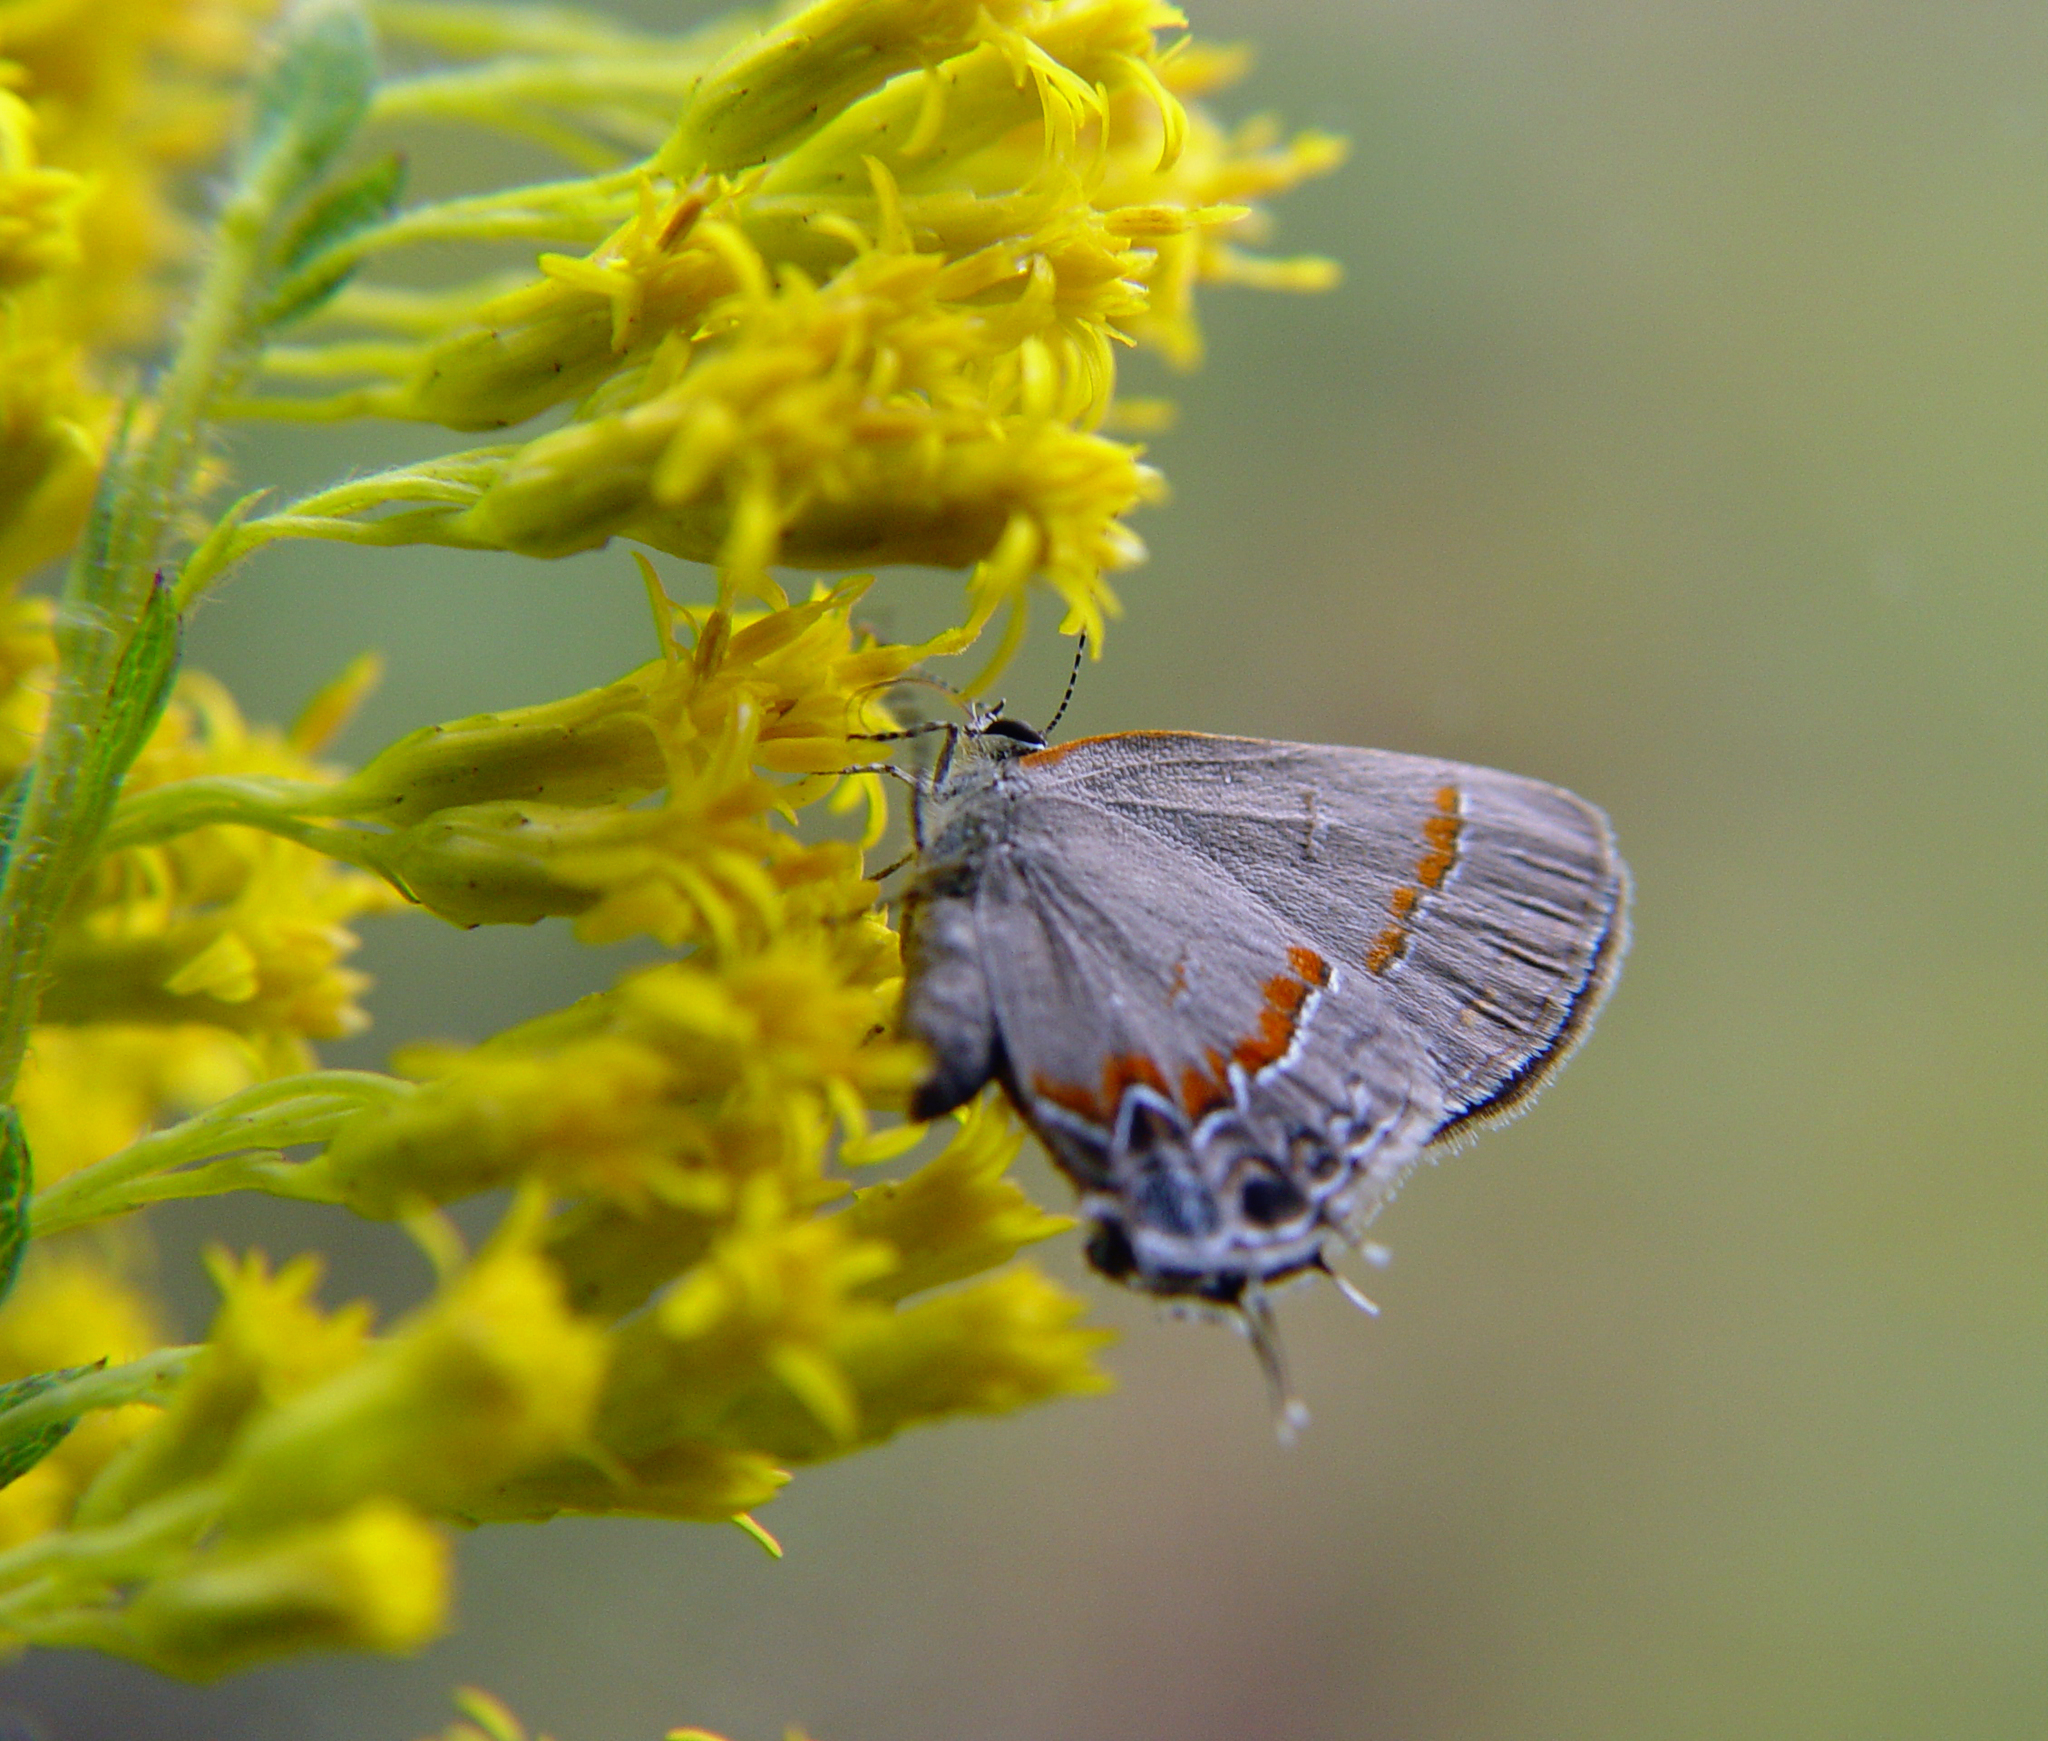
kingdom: Animalia
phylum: Arthropoda
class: Insecta
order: Lepidoptera
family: Lycaenidae
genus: Calycopis
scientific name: Calycopis cecrops
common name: Red-banded hairstreak
